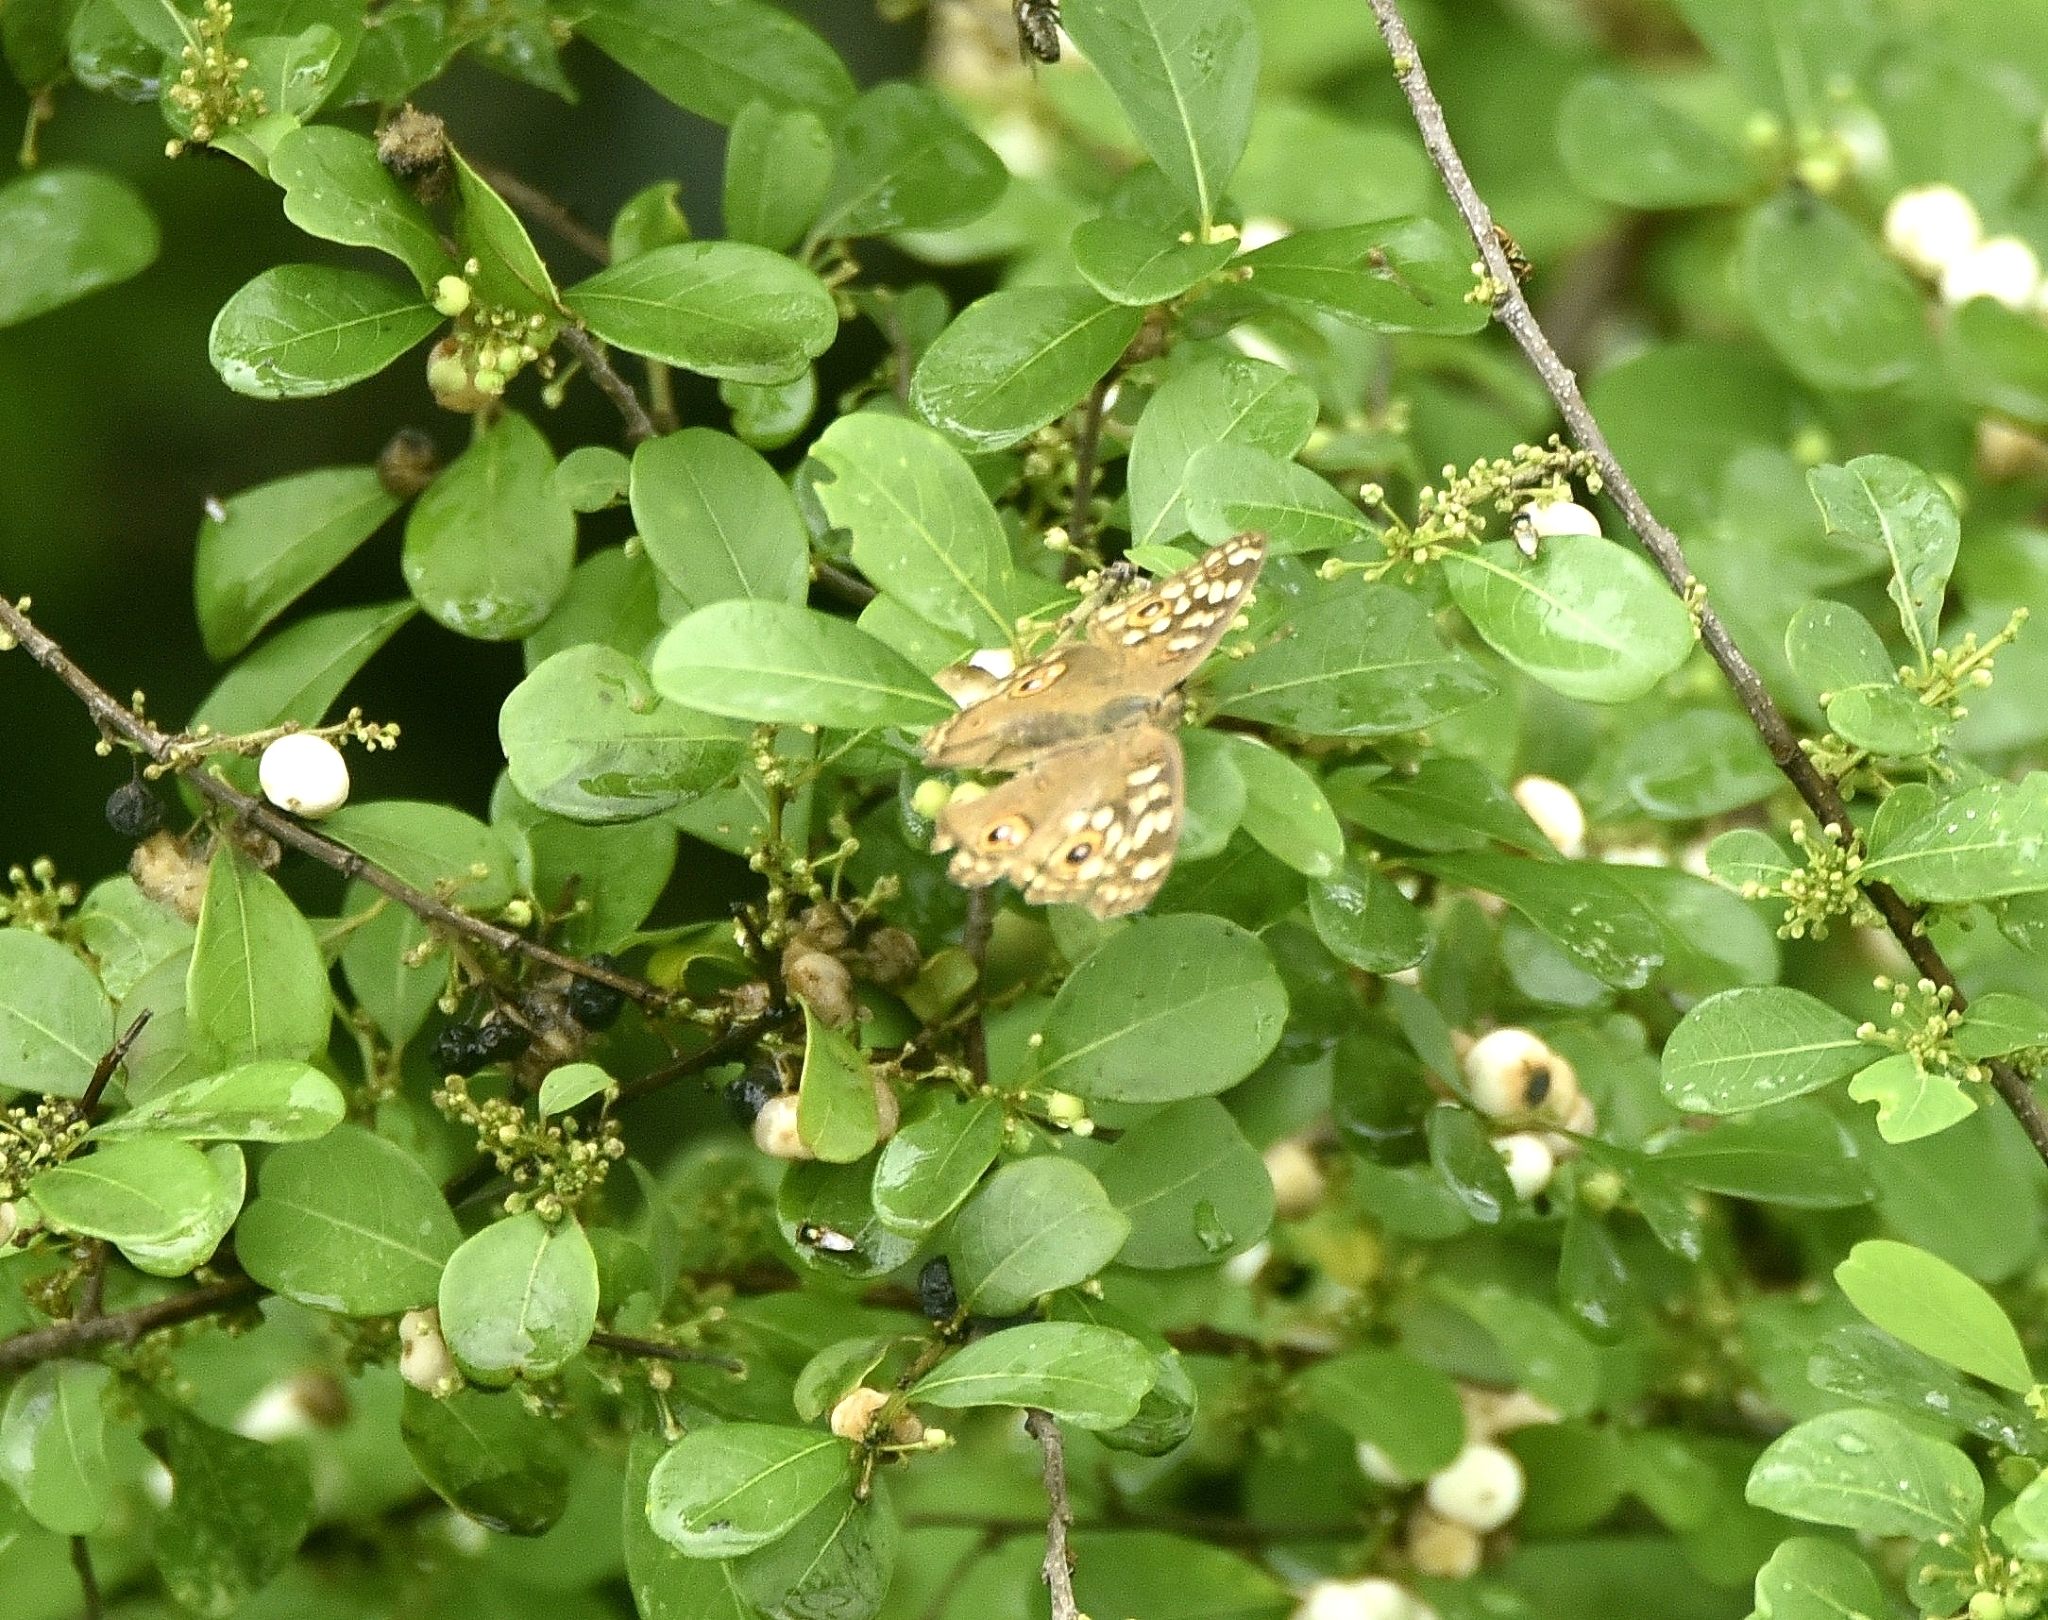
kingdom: Animalia
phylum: Arthropoda
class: Insecta
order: Lepidoptera
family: Nymphalidae
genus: Junonia
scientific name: Junonia lemonias
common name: Lemon pansy
